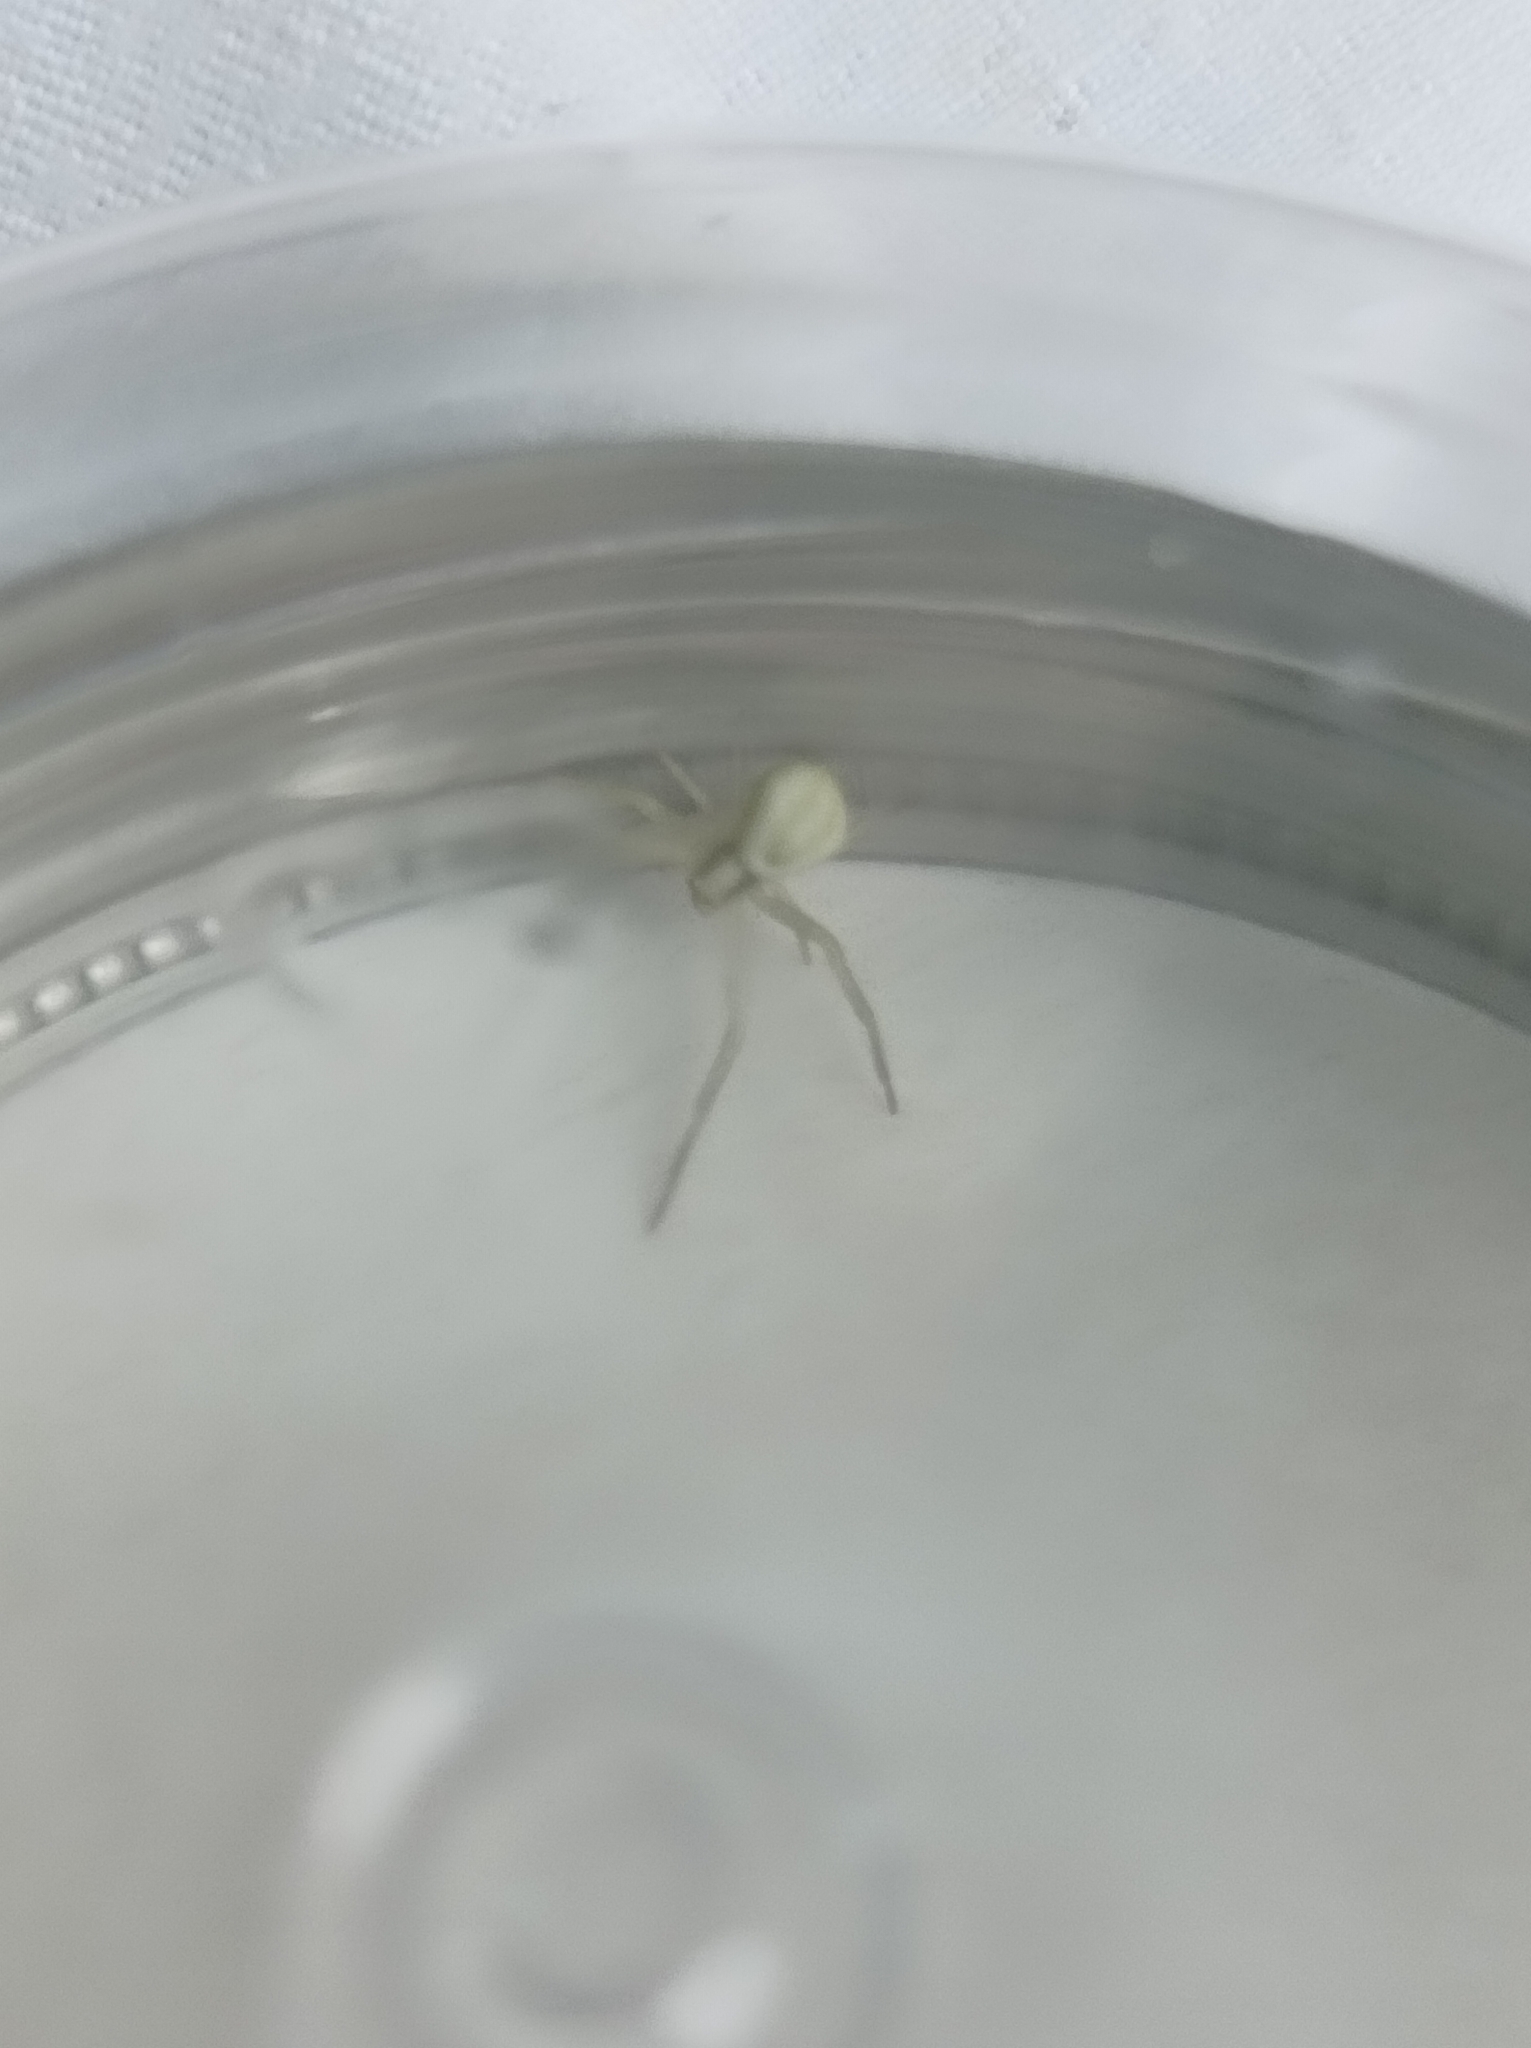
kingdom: Animalia
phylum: Arthropoda
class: Arachnida
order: Araneae
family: Thomisidae
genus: Misumena
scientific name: Misumena vatia
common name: Goldenrod crab spider
